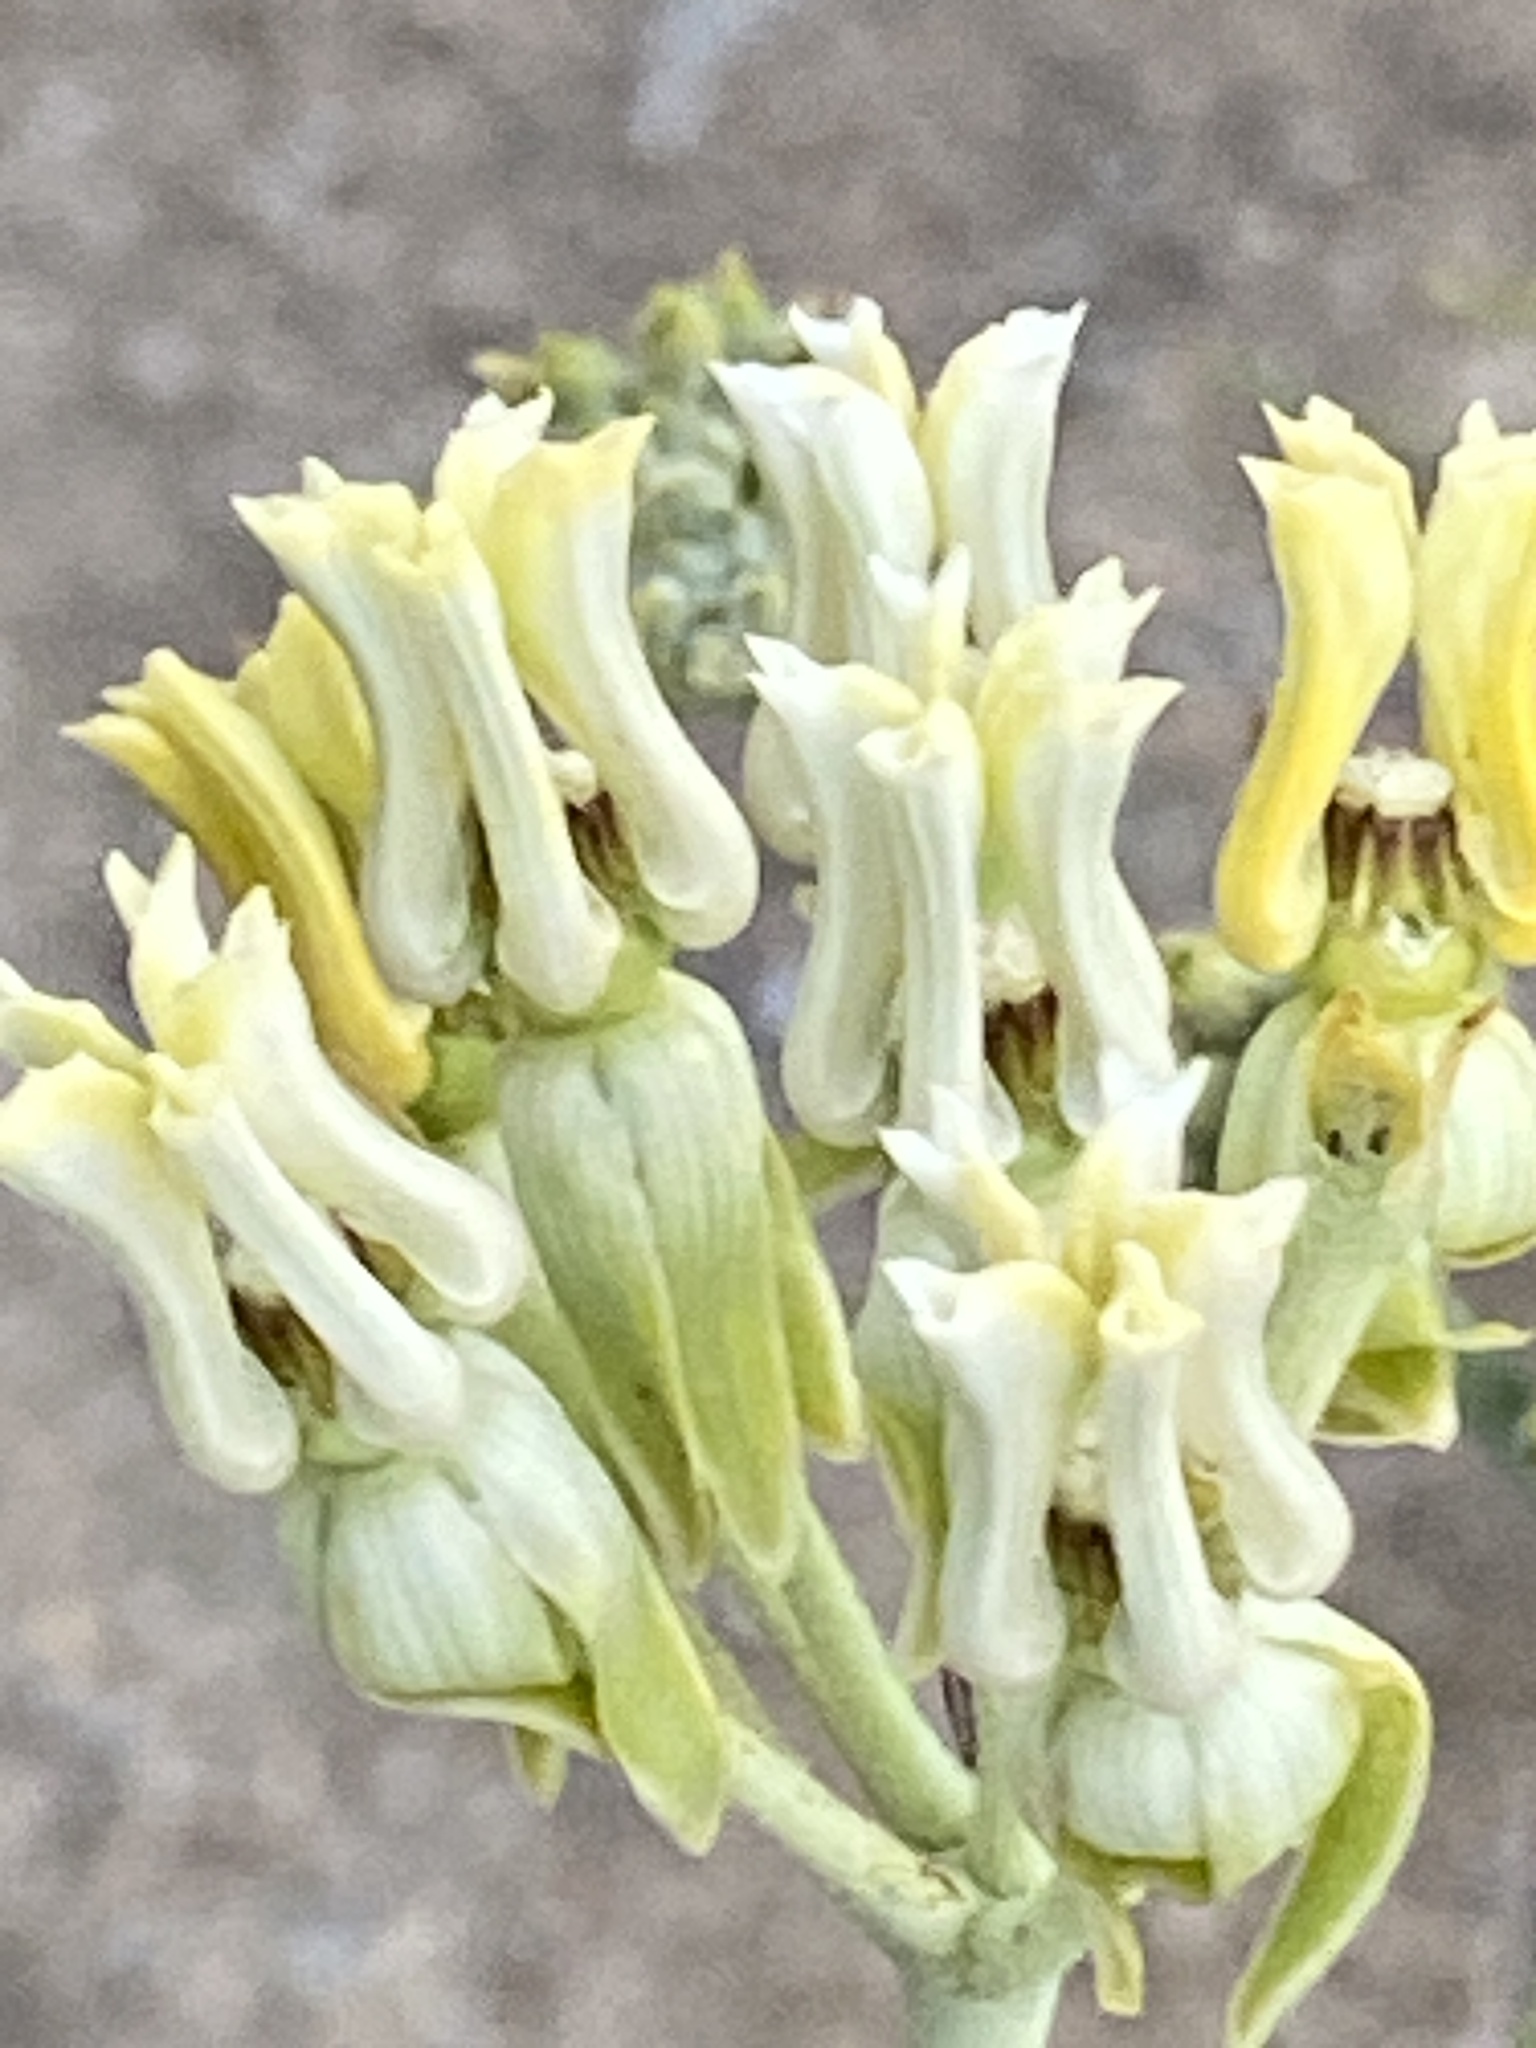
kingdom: Plantae
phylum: Tracheophyta
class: Magnoliopsida
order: Gentianales
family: Apocynaceae
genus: Asclepias
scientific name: Asclepias subulata
